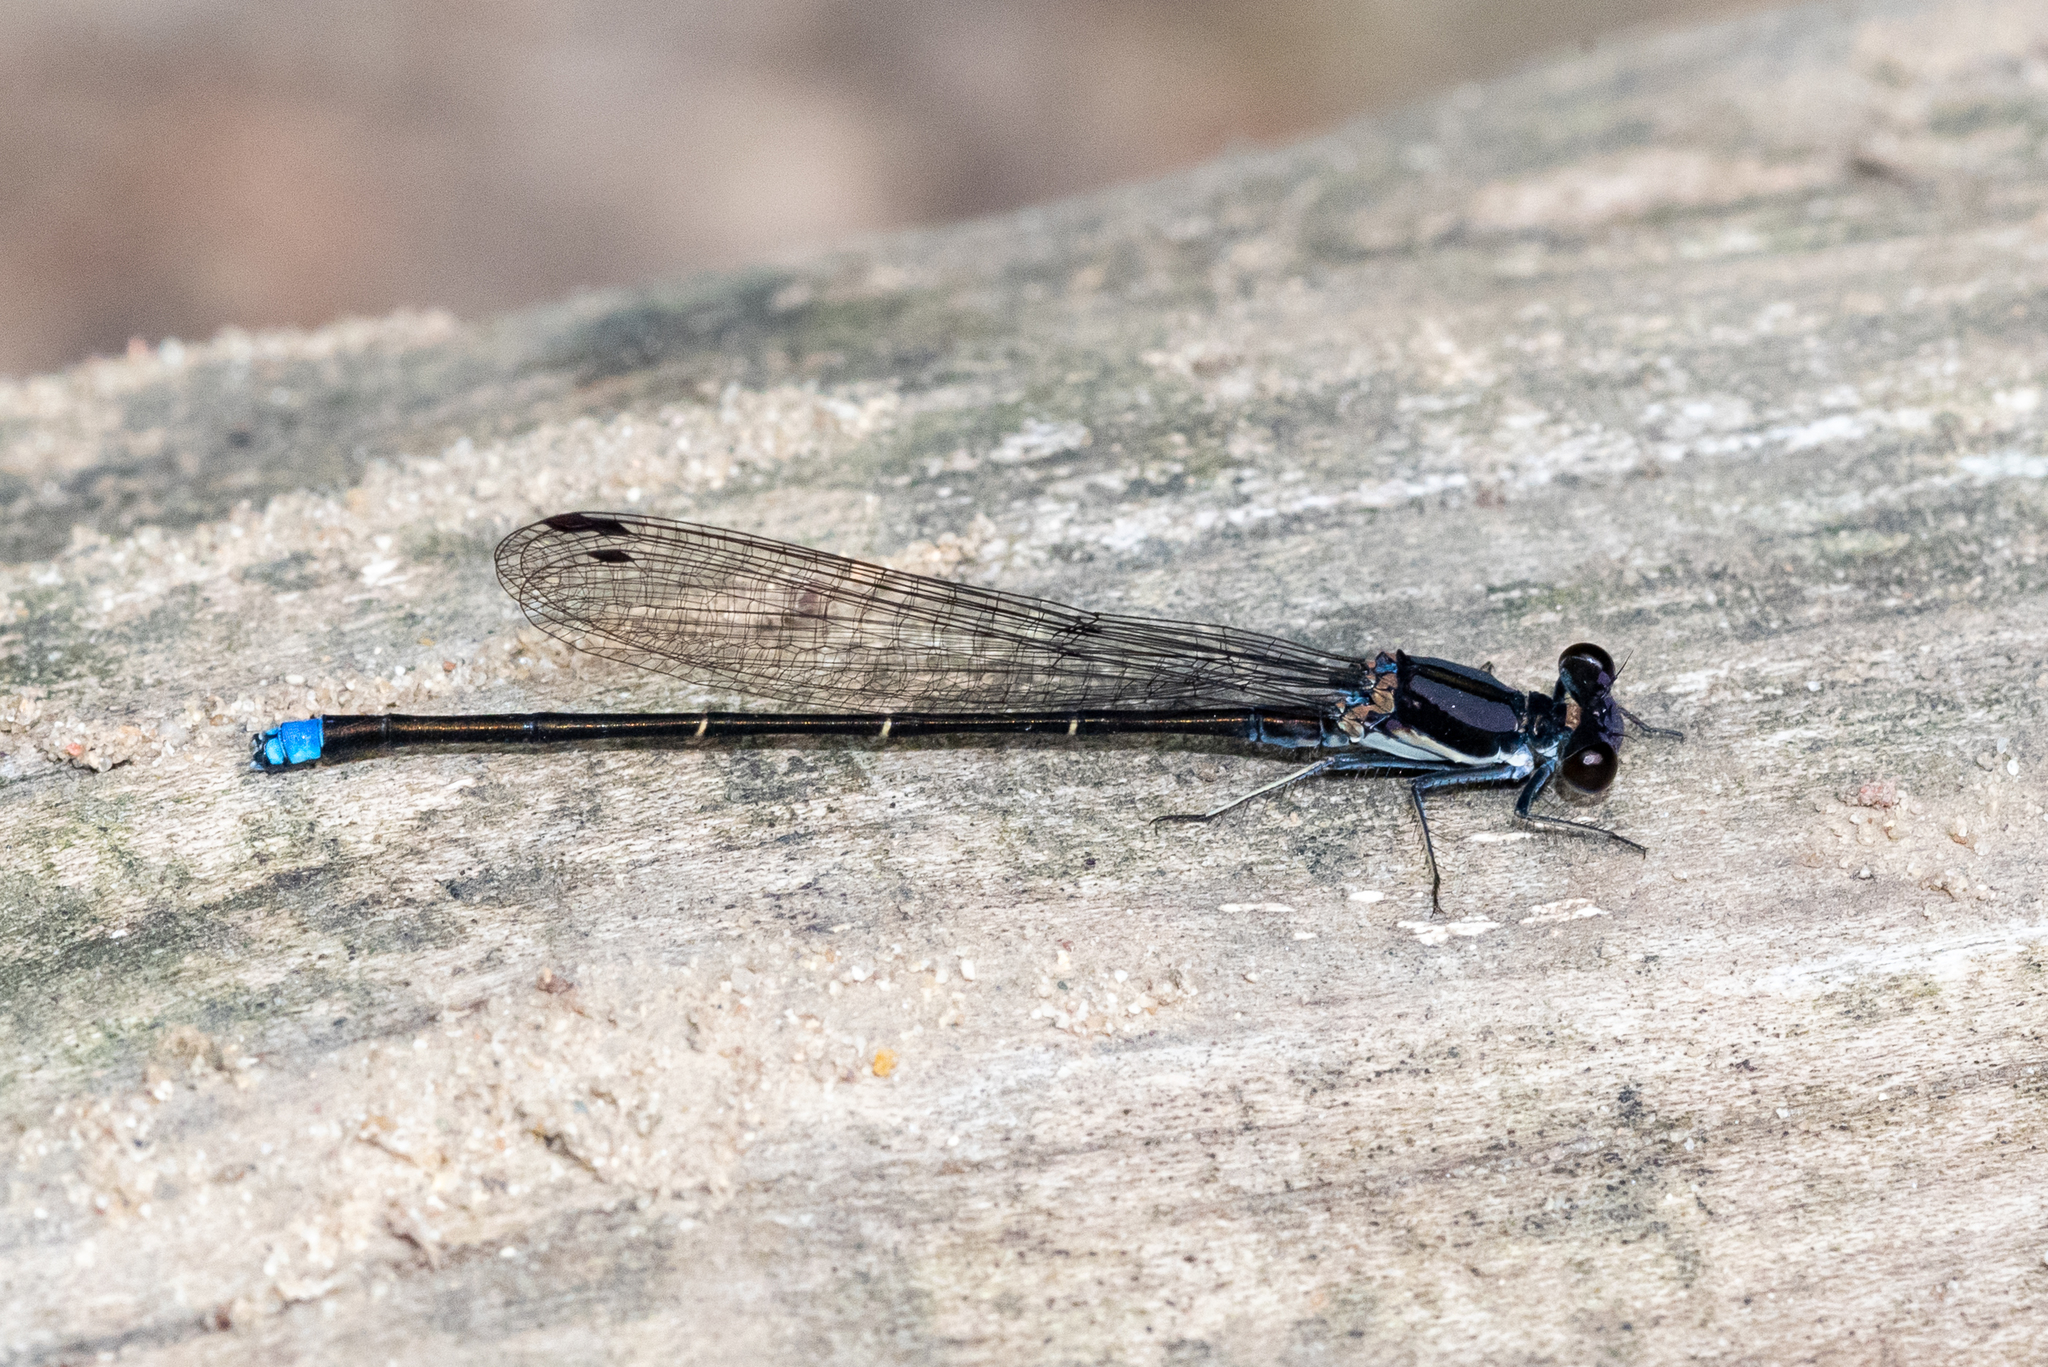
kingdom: Animalia
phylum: Arthropoda
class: Insecta
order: Odonata
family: Coenagrionidae
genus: Argia
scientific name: Argia tibialis
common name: Blue-tipped dancer
